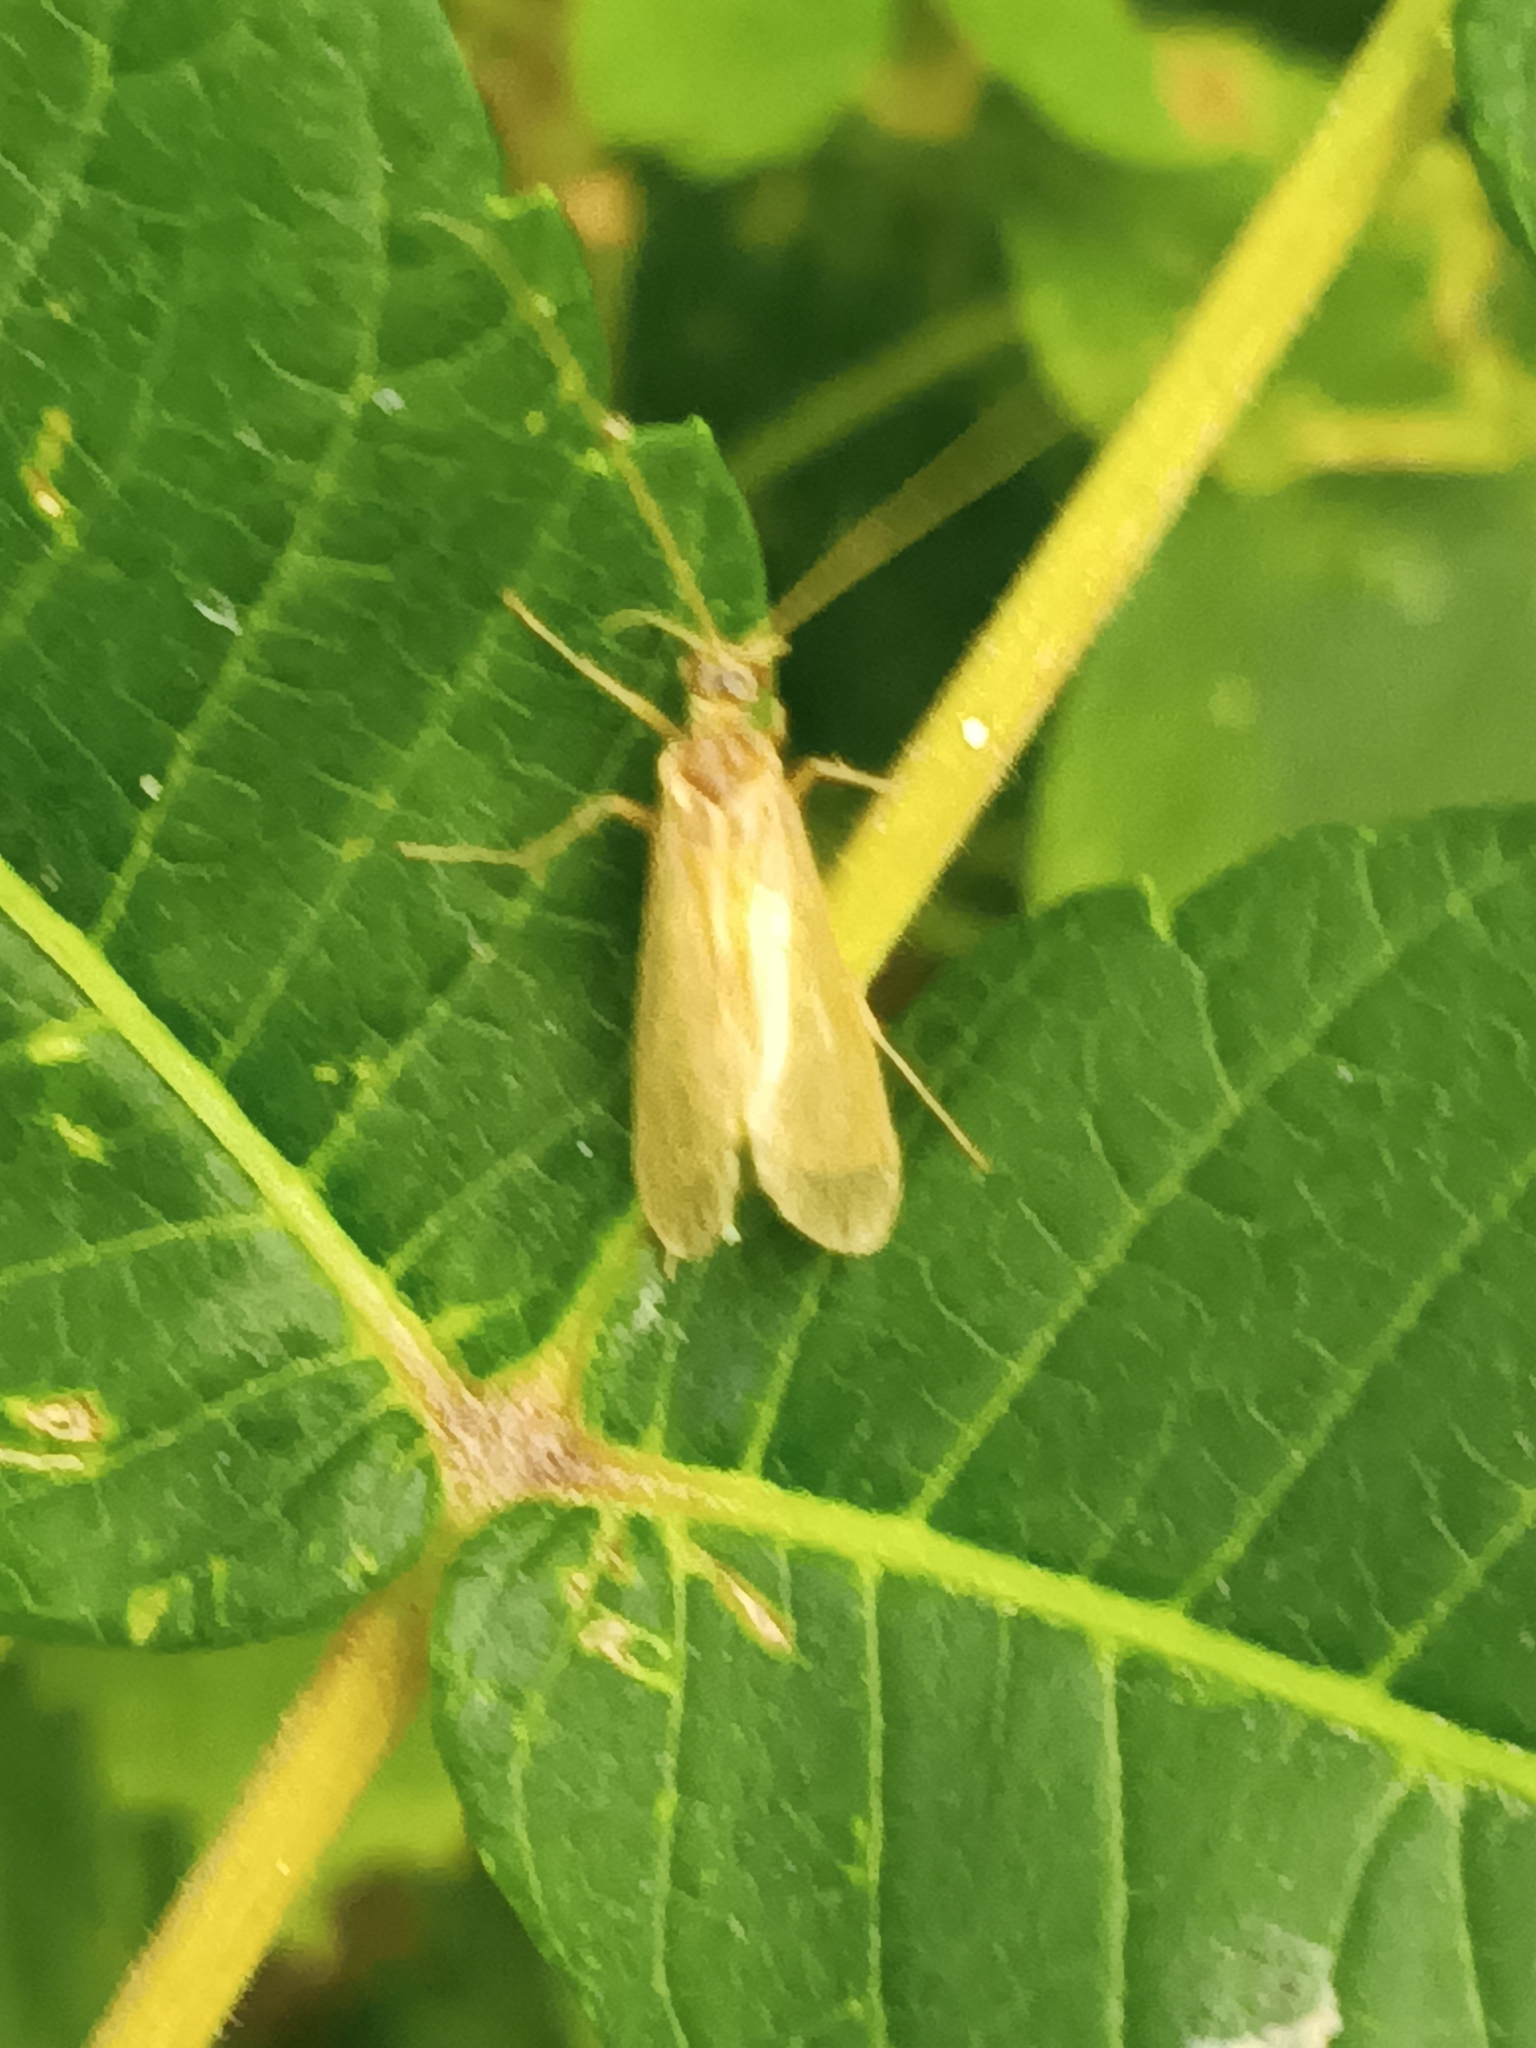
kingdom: Animalia
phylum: Arthropoda
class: Insecta
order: Trichoptera
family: Hydropsychidae
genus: Potamyia
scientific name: Potamyia flava
